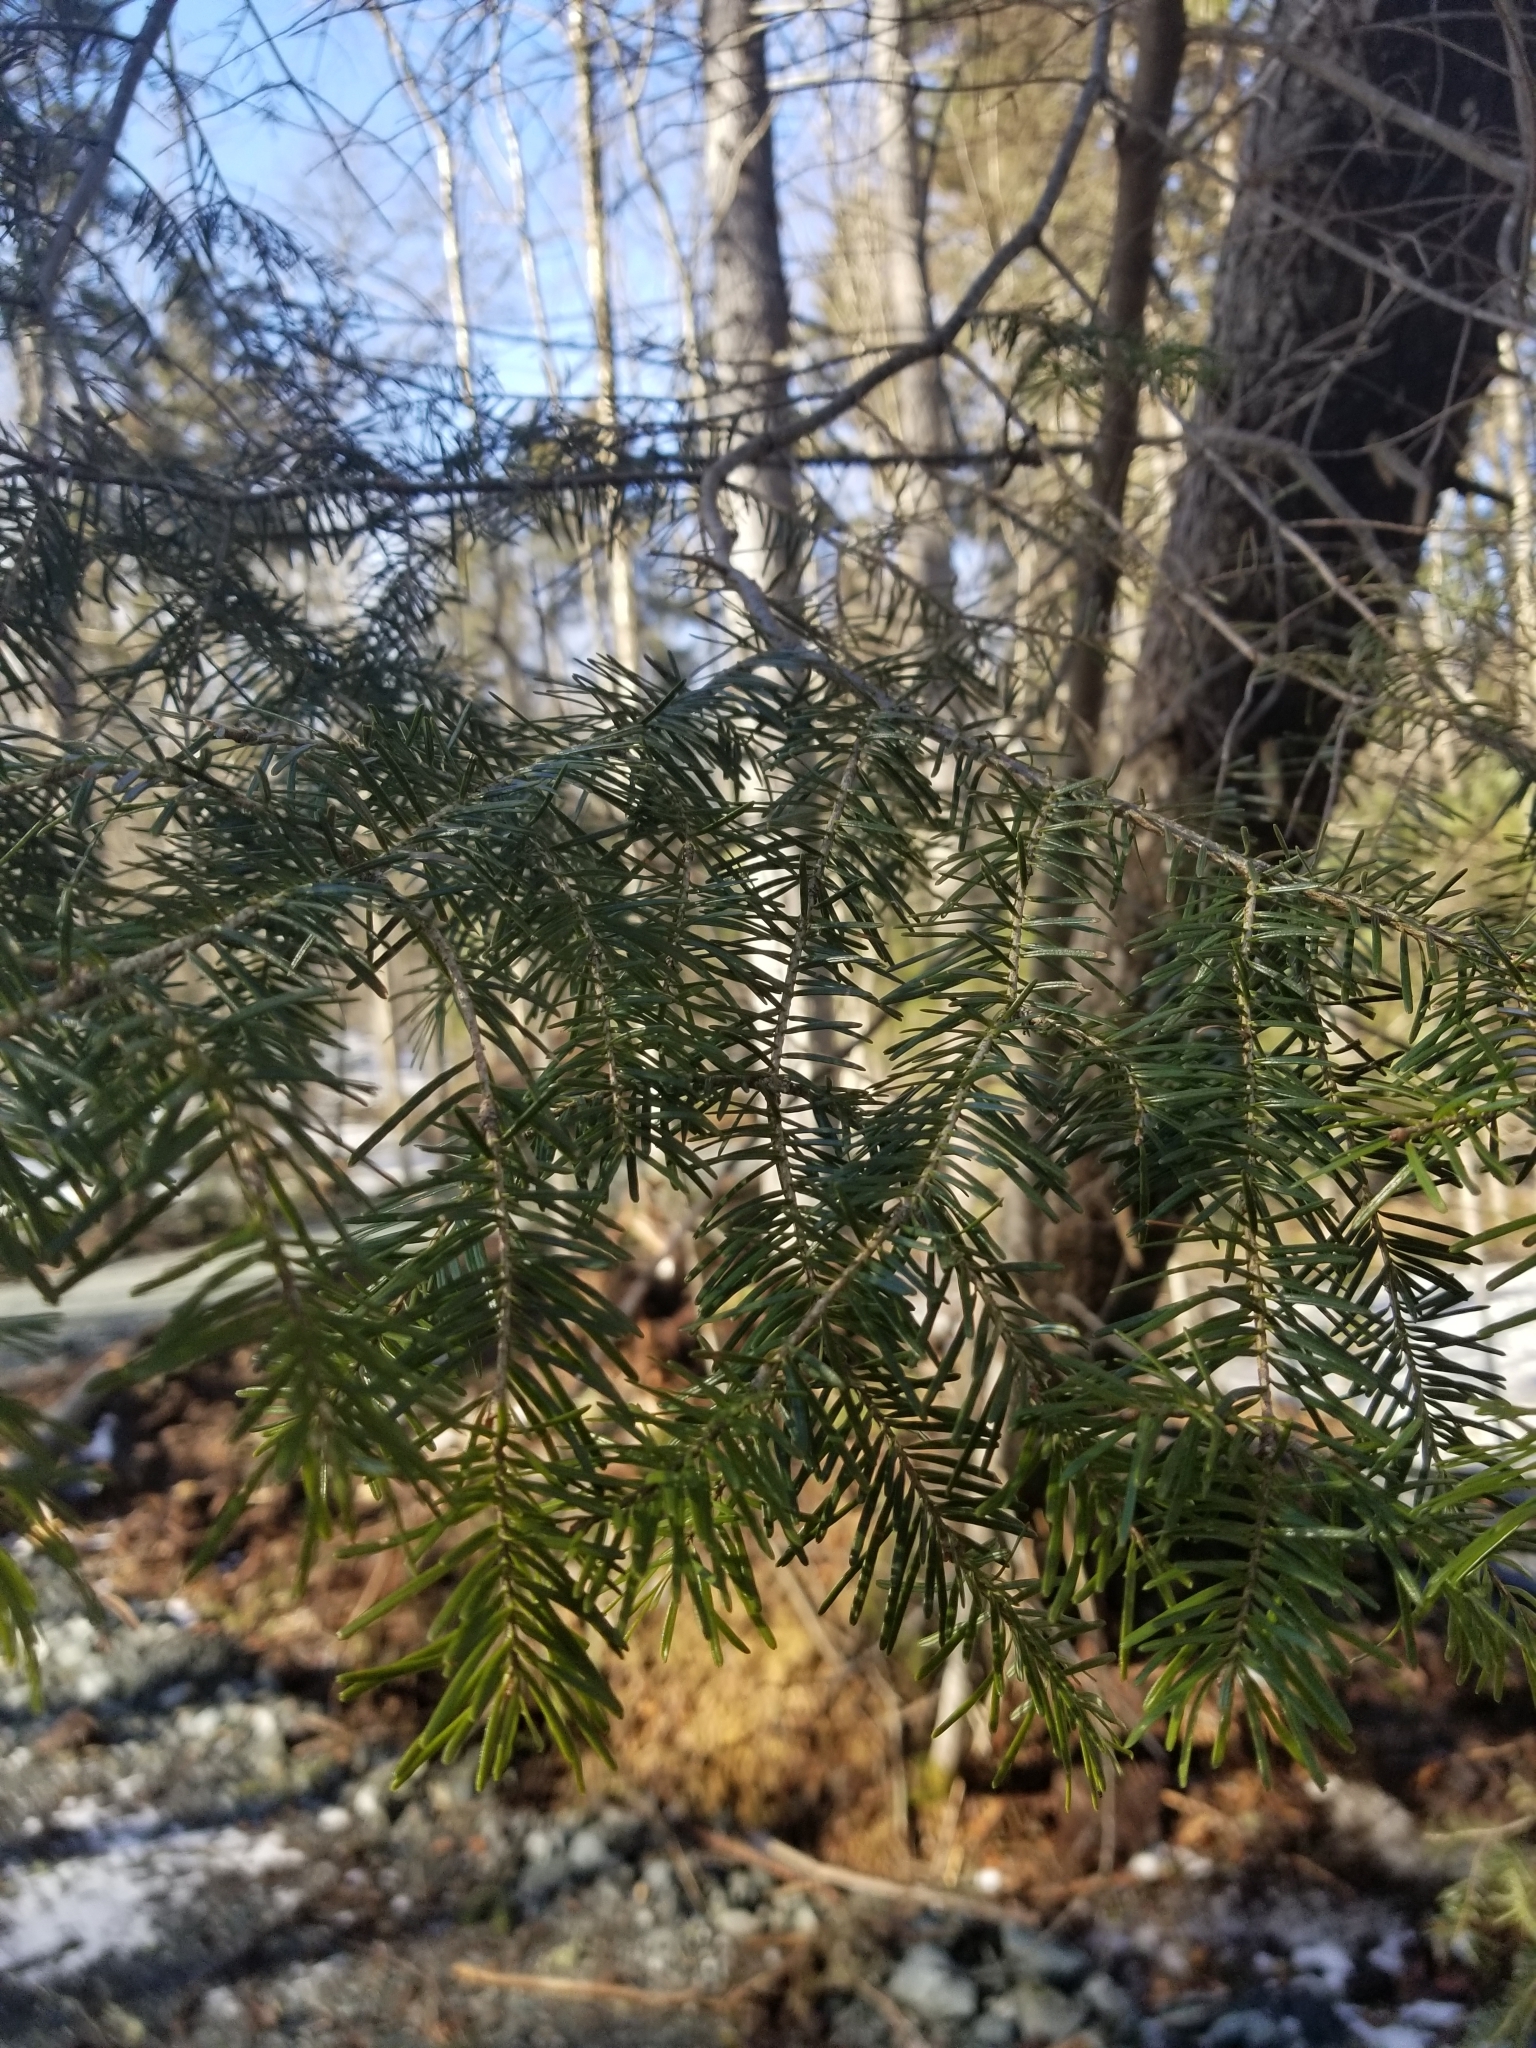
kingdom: Plantae
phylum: Tracheophyta
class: Pinopsida
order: Pinales
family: Pinaceae
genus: Abies
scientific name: Abies balsamea
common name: Balsam fir
